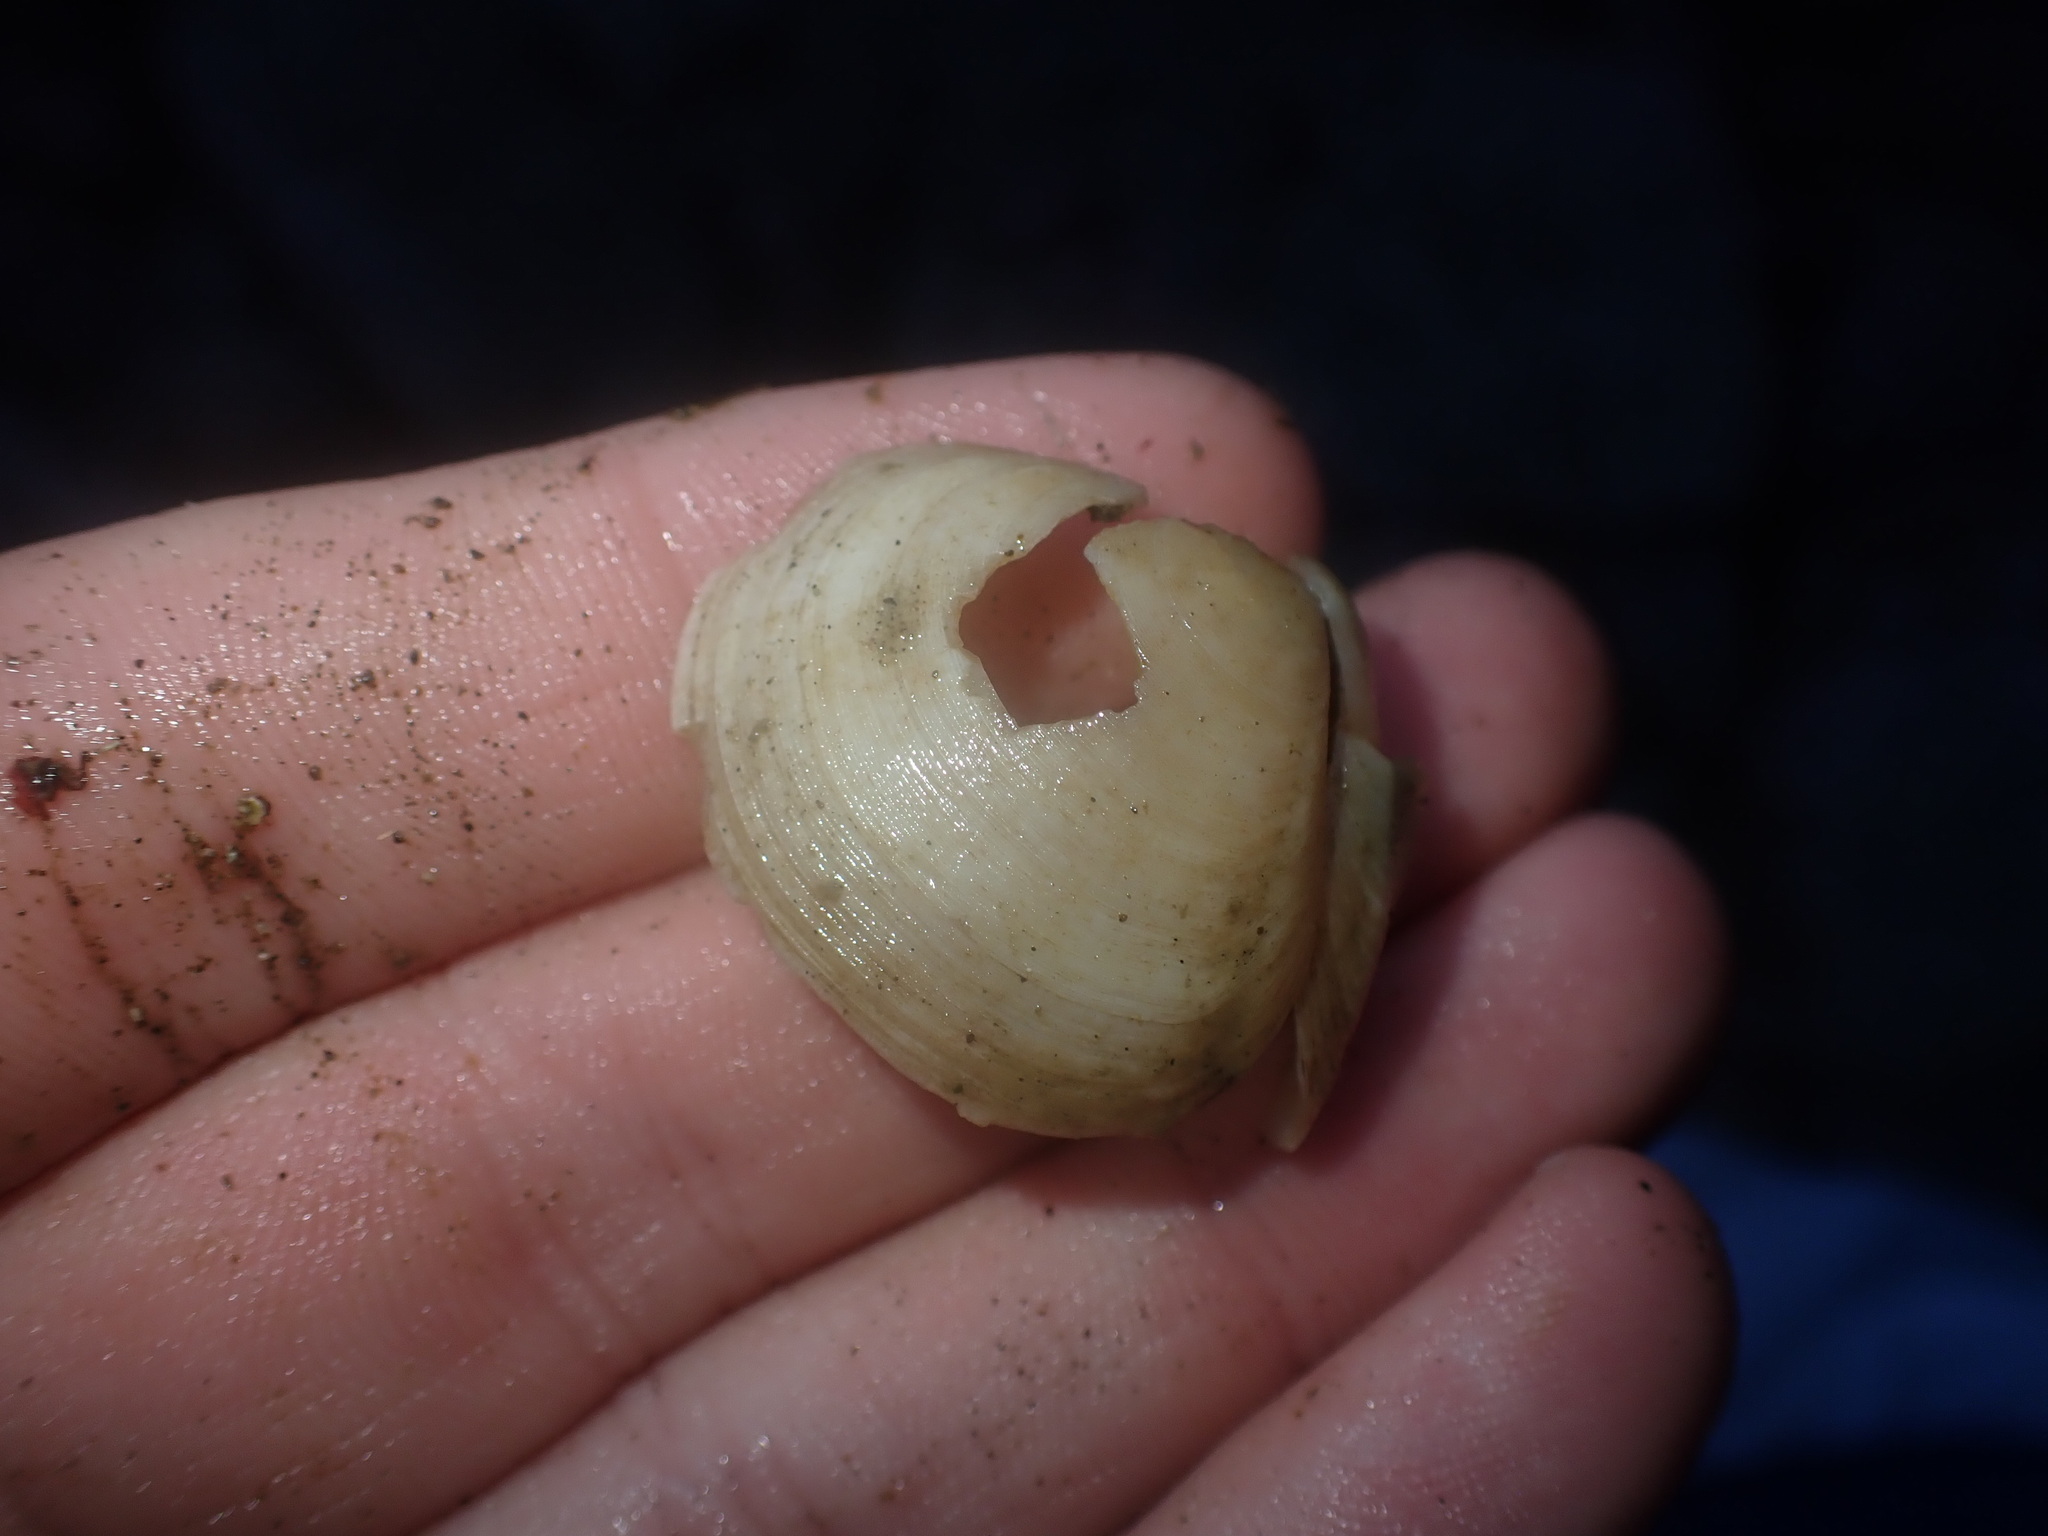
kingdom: Animalia
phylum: Mollusca
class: Bivalvia
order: Cardiida
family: Tellinidae
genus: Pseudarcopagia
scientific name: Pseudarcopagia disculus
